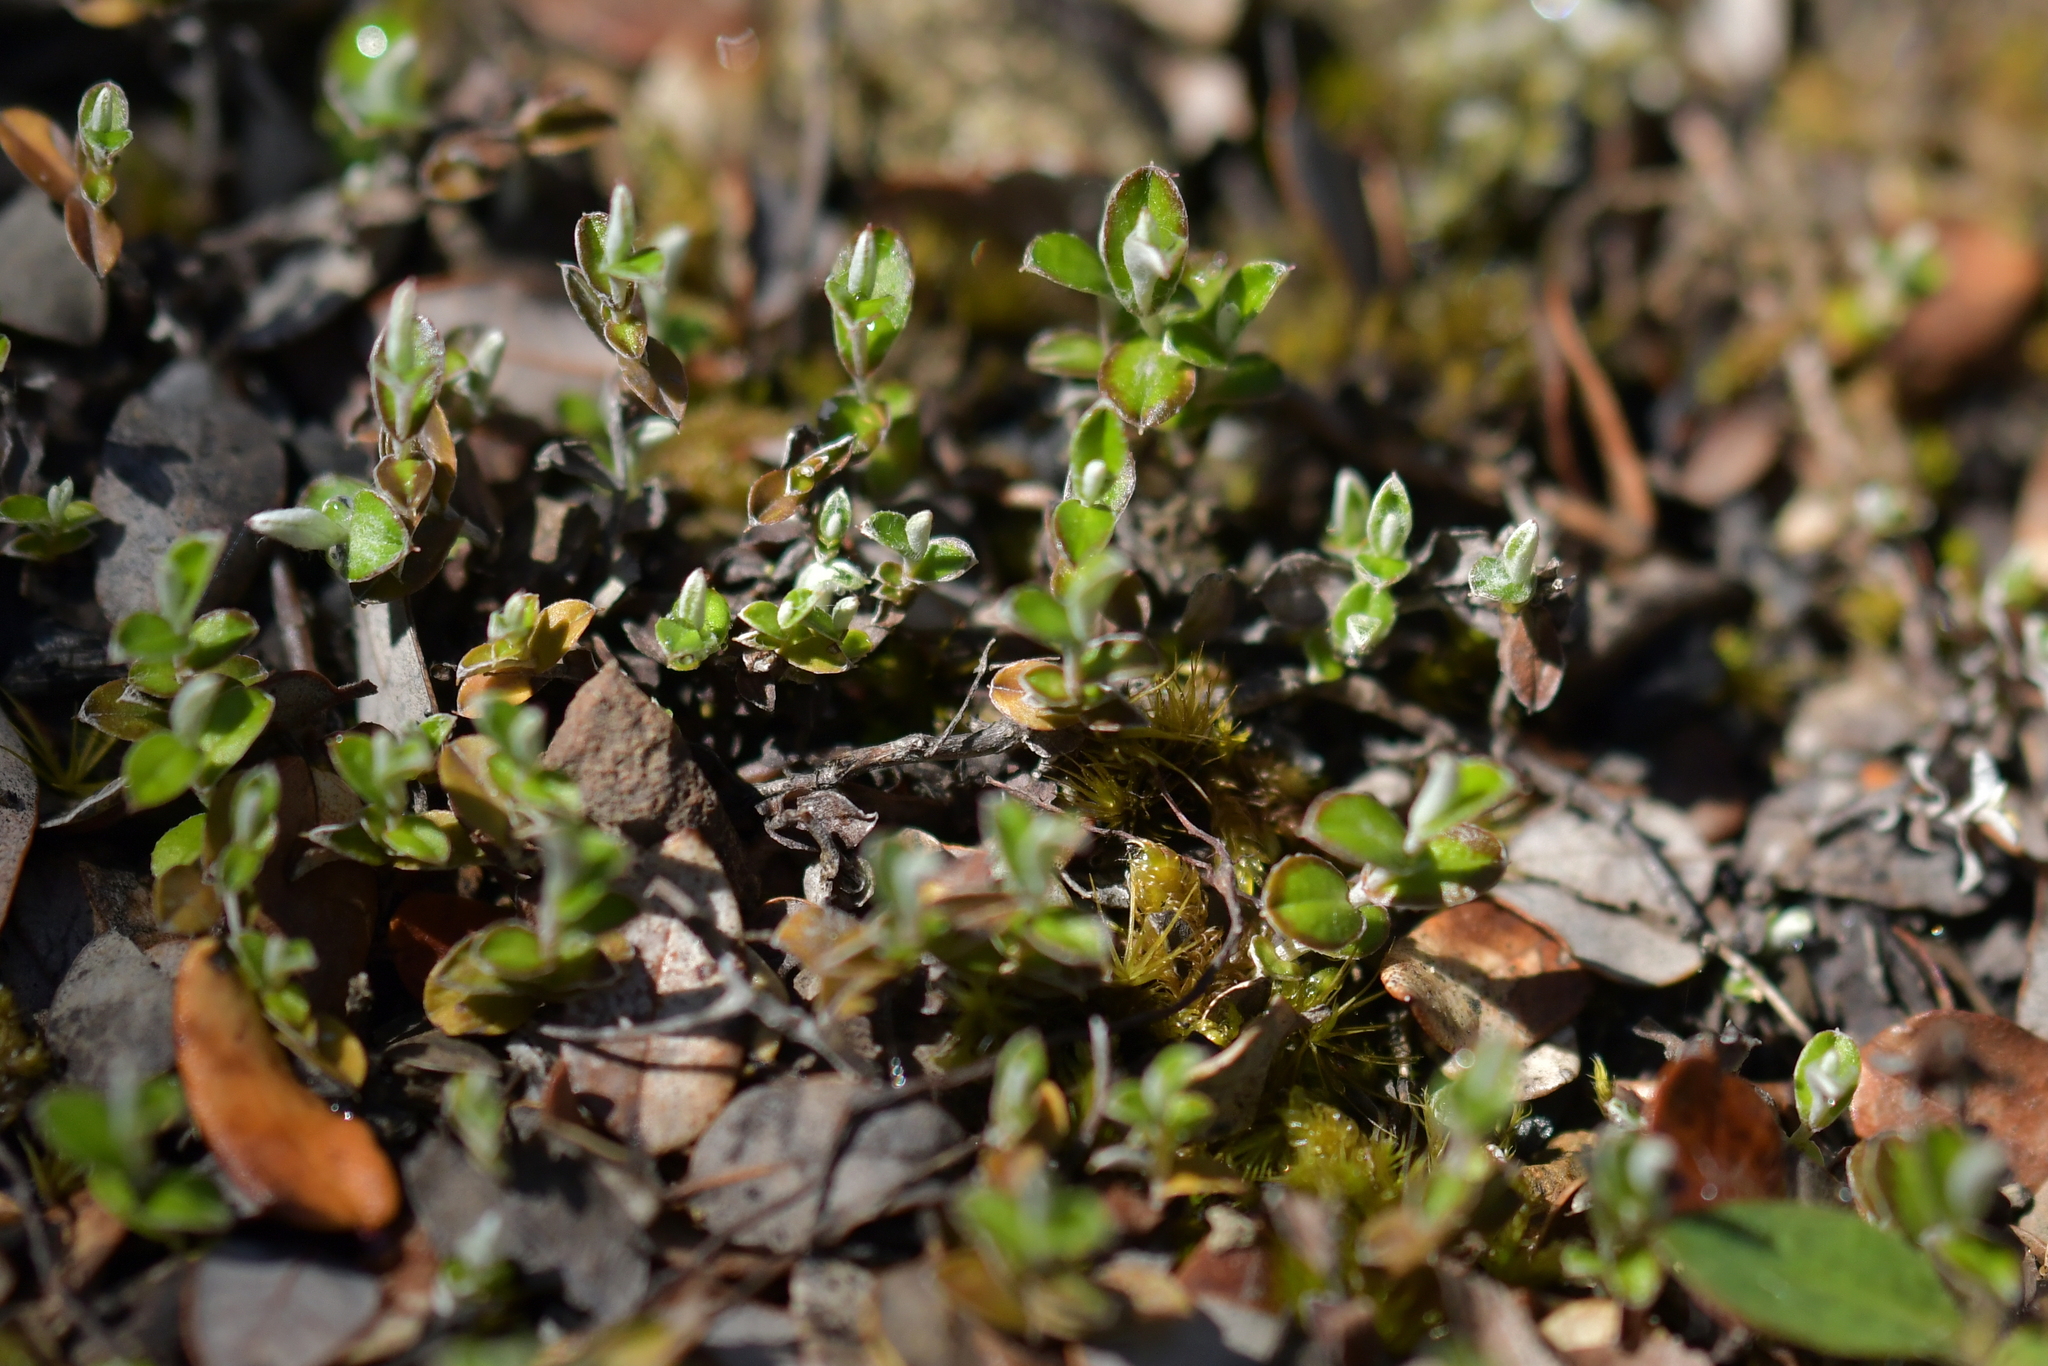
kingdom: Plantae
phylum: Tracheophyta
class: Magnoliopsida
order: Asterales
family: Asteraceae
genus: Helichrysum
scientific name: Helichrysum filicaule
